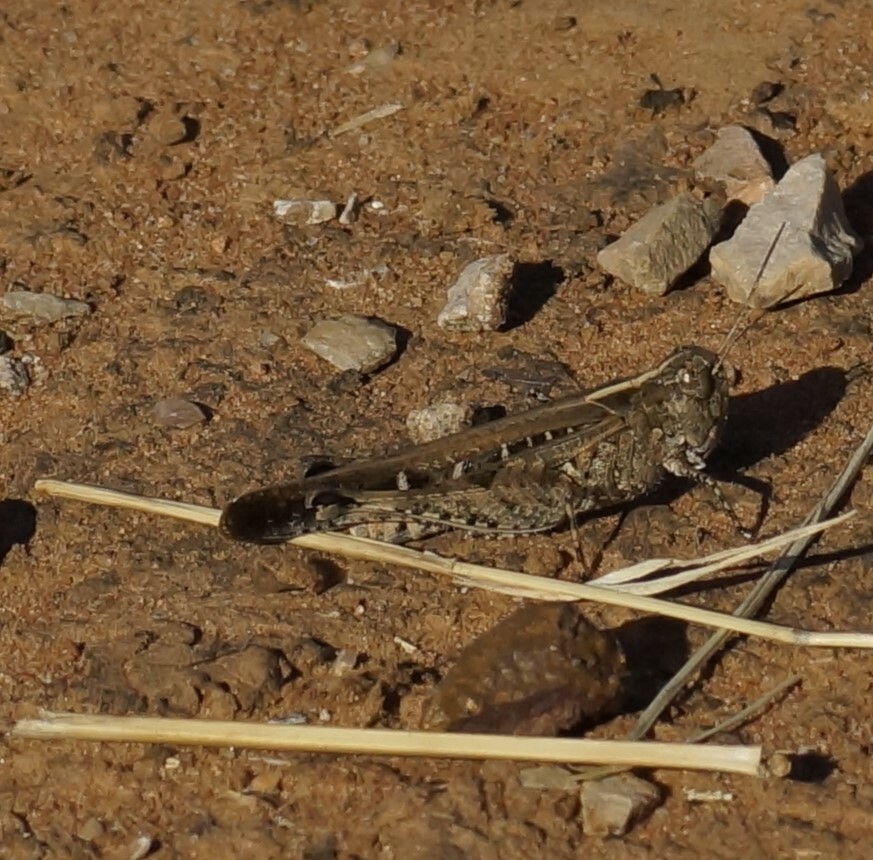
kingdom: Animalia
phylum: Arthropoda
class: Insecta
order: Orthoptera
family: Acrididae
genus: Heteropternis
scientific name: Heteropternis obscurella
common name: Long-legged bandwing
